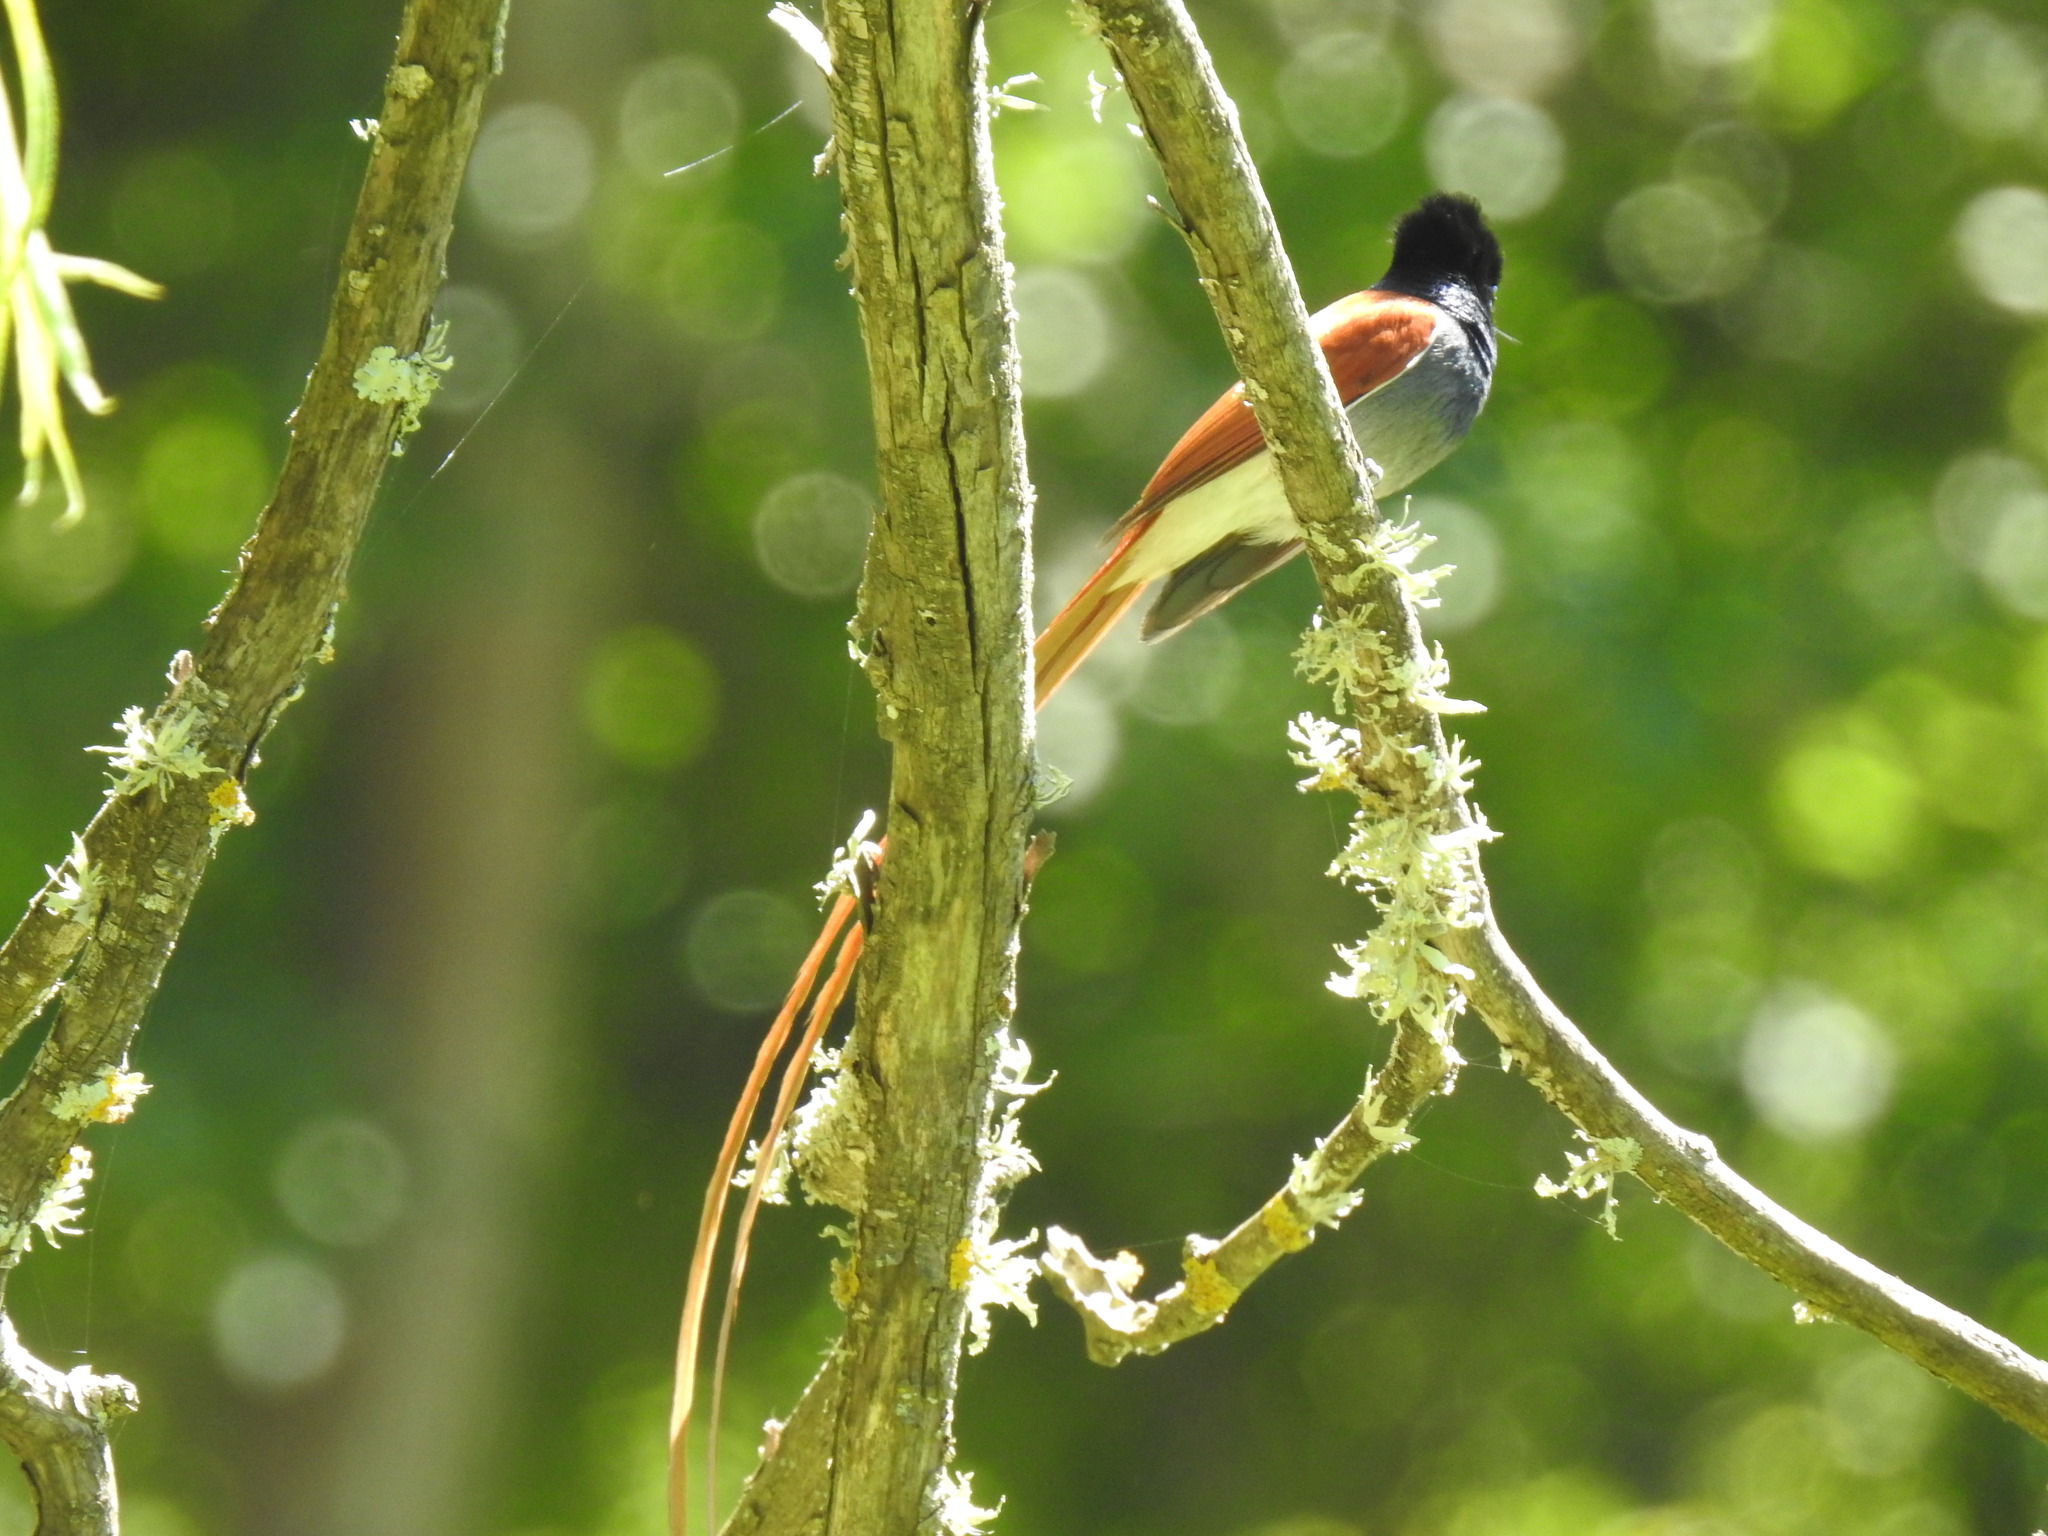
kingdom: Animalia
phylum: Chordata
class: Aves
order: Passeriformes
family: Monarchidae
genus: Terpsiphone
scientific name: Terpsiphone viridis
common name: African paradise flycatcher
